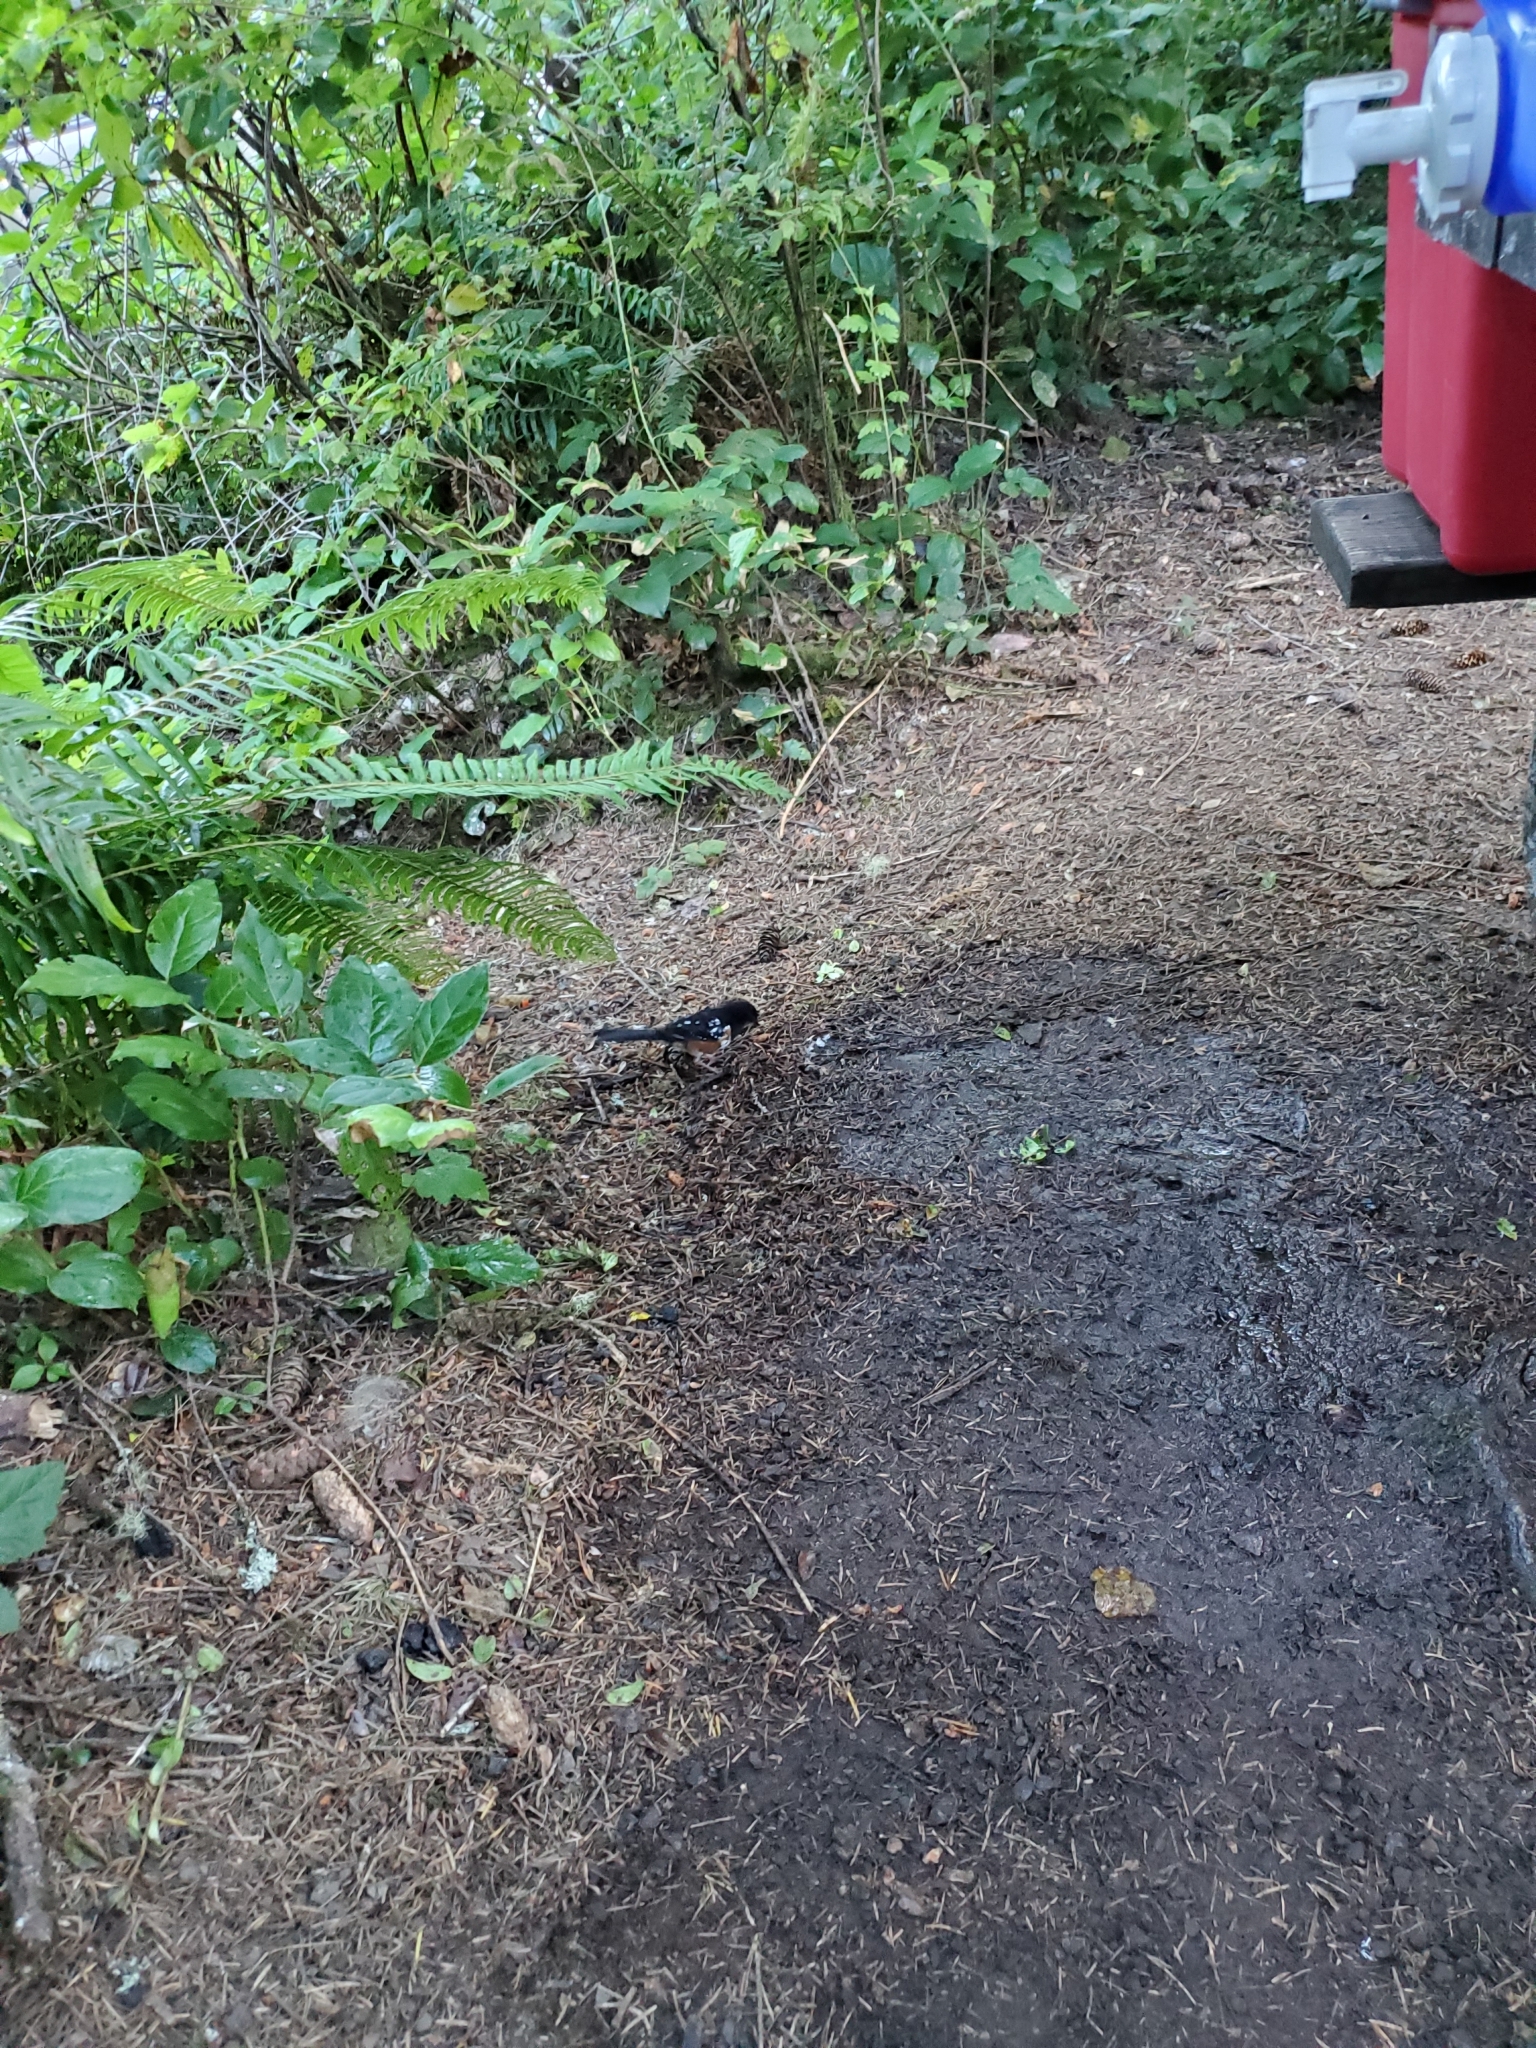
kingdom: Animalia
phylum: Chordata
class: Aves
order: Passeriformes
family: Passerellidae
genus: Pipilo
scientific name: Pipilo maculatus
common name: Spotted towhee
